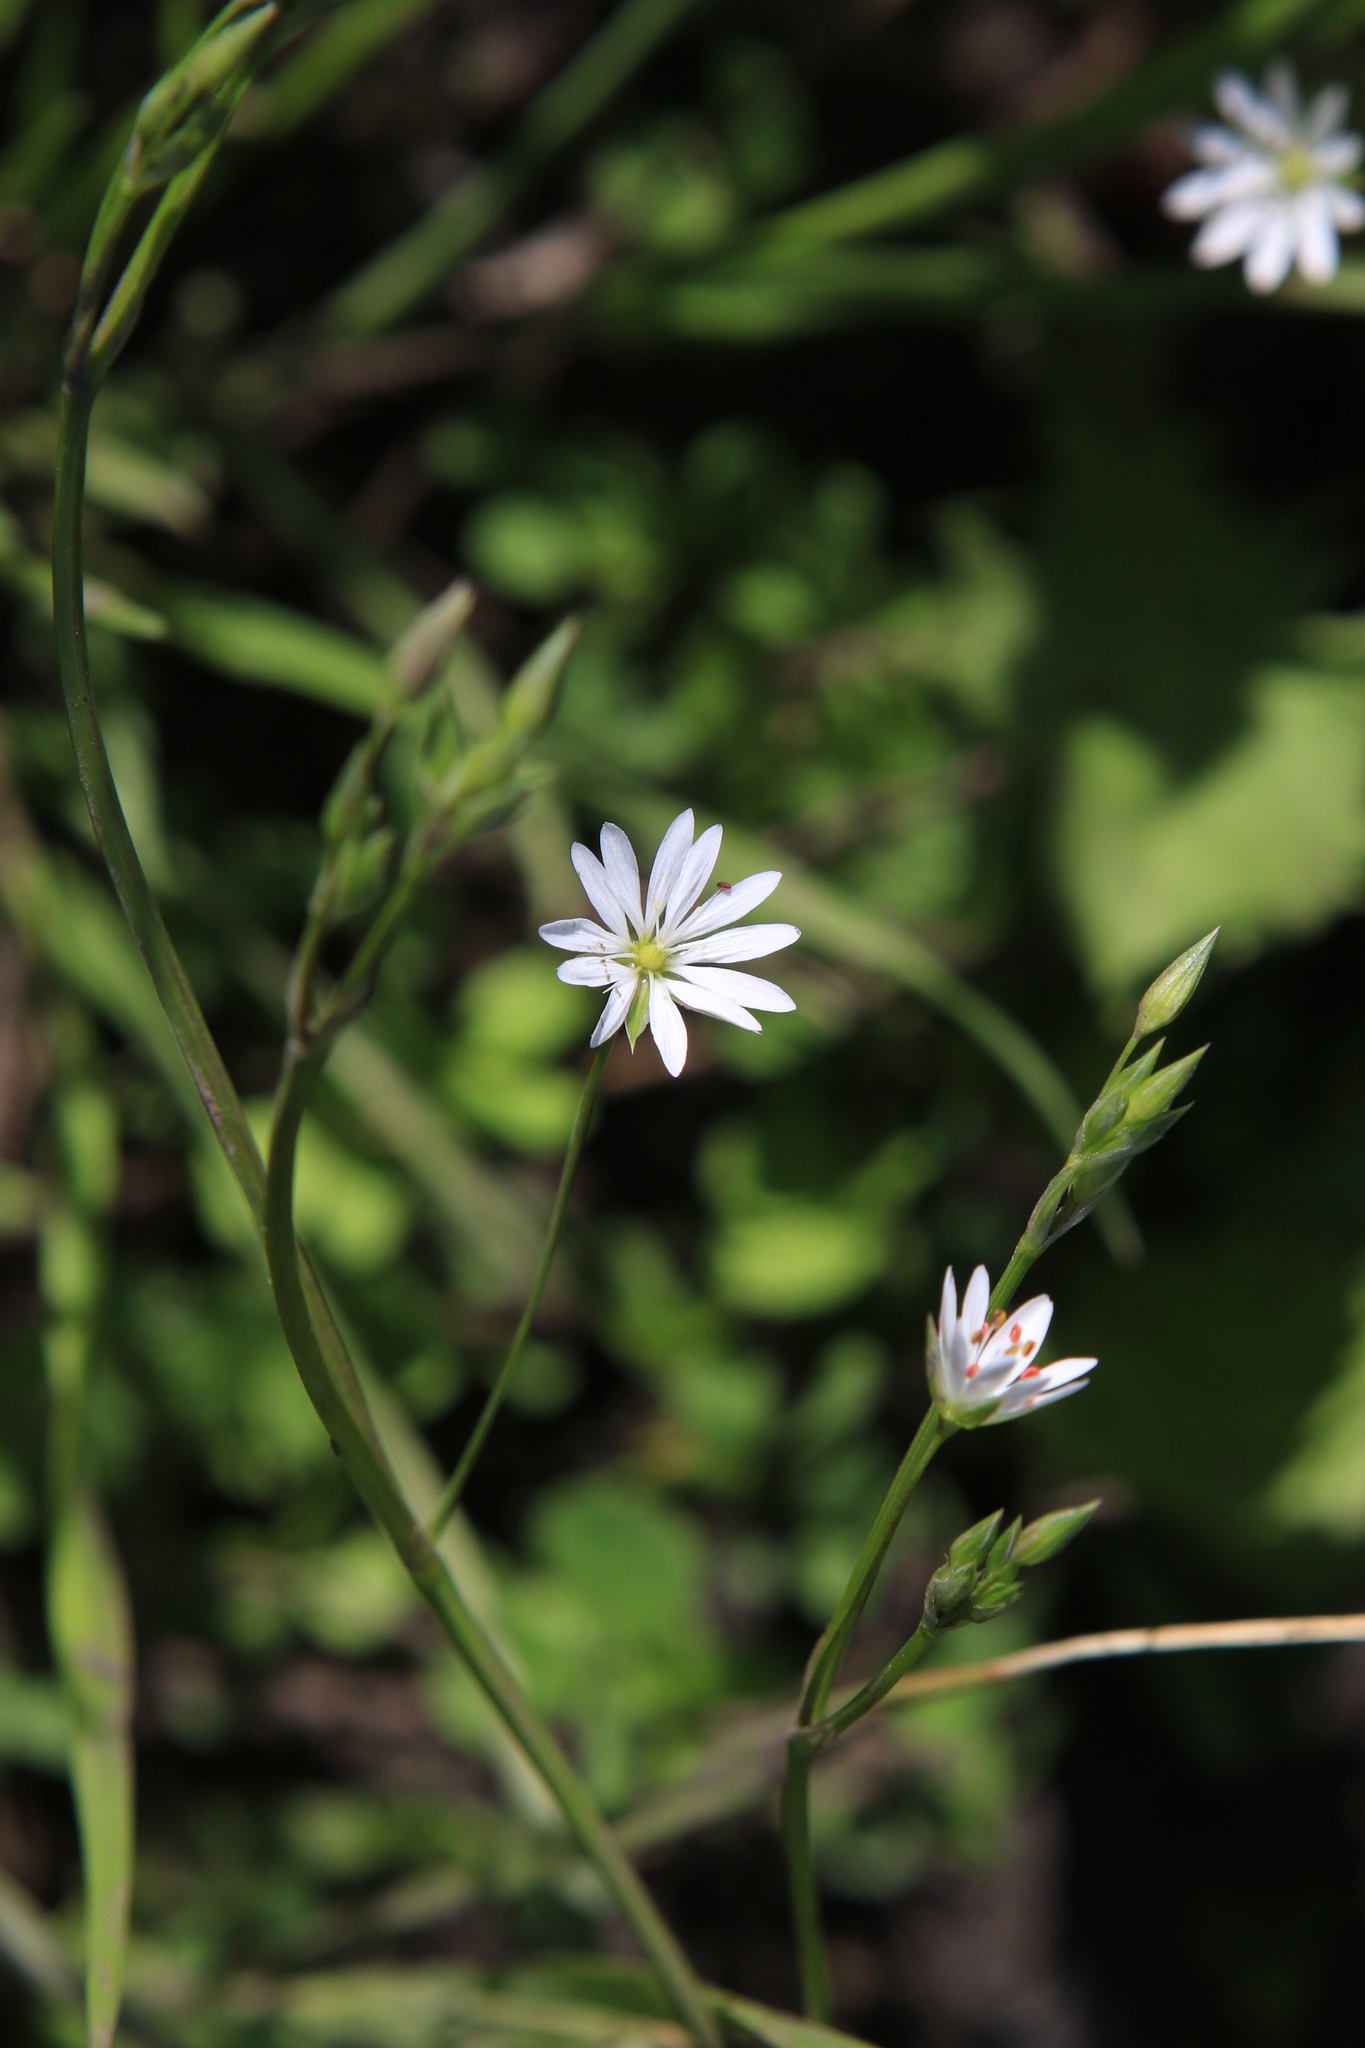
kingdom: Plantae
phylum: Tracheophyta
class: Magnoliopsida
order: Caryophyllales
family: Caryophyllaceae
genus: Stellaria
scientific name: Stellaria graminea
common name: Grass-like starwort
